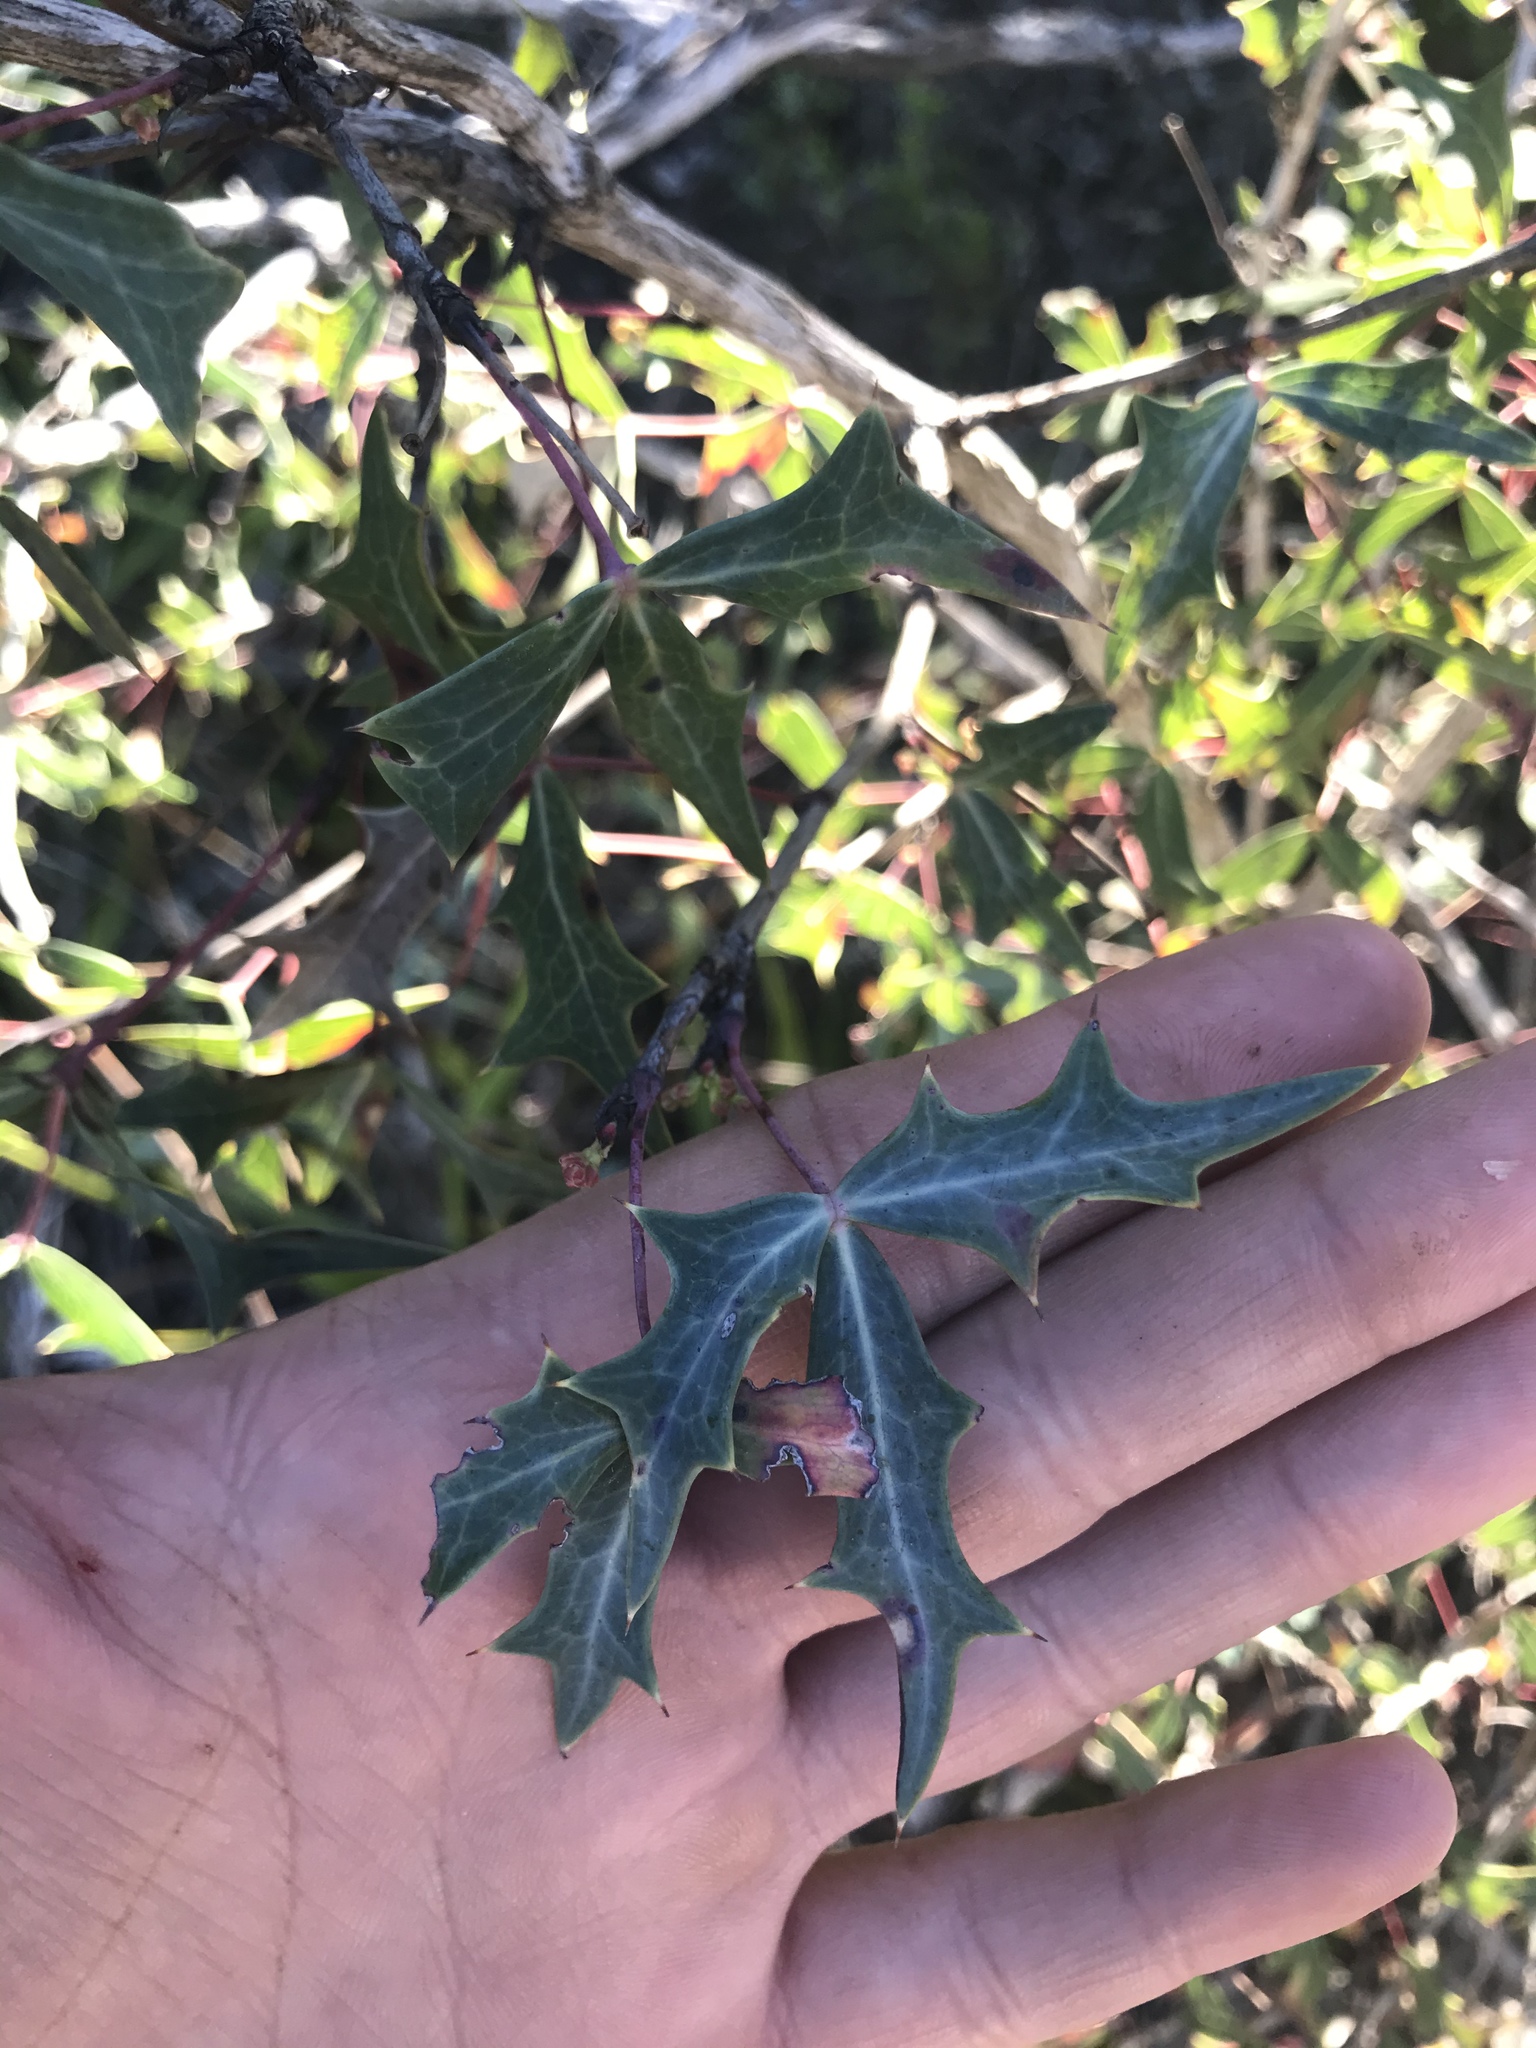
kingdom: Plantae
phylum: Tracheophyta
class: Magnoliopsida
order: Ranunculales
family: Berberidaceae
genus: Alloberberis
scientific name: Alloberberis trifoliolata
